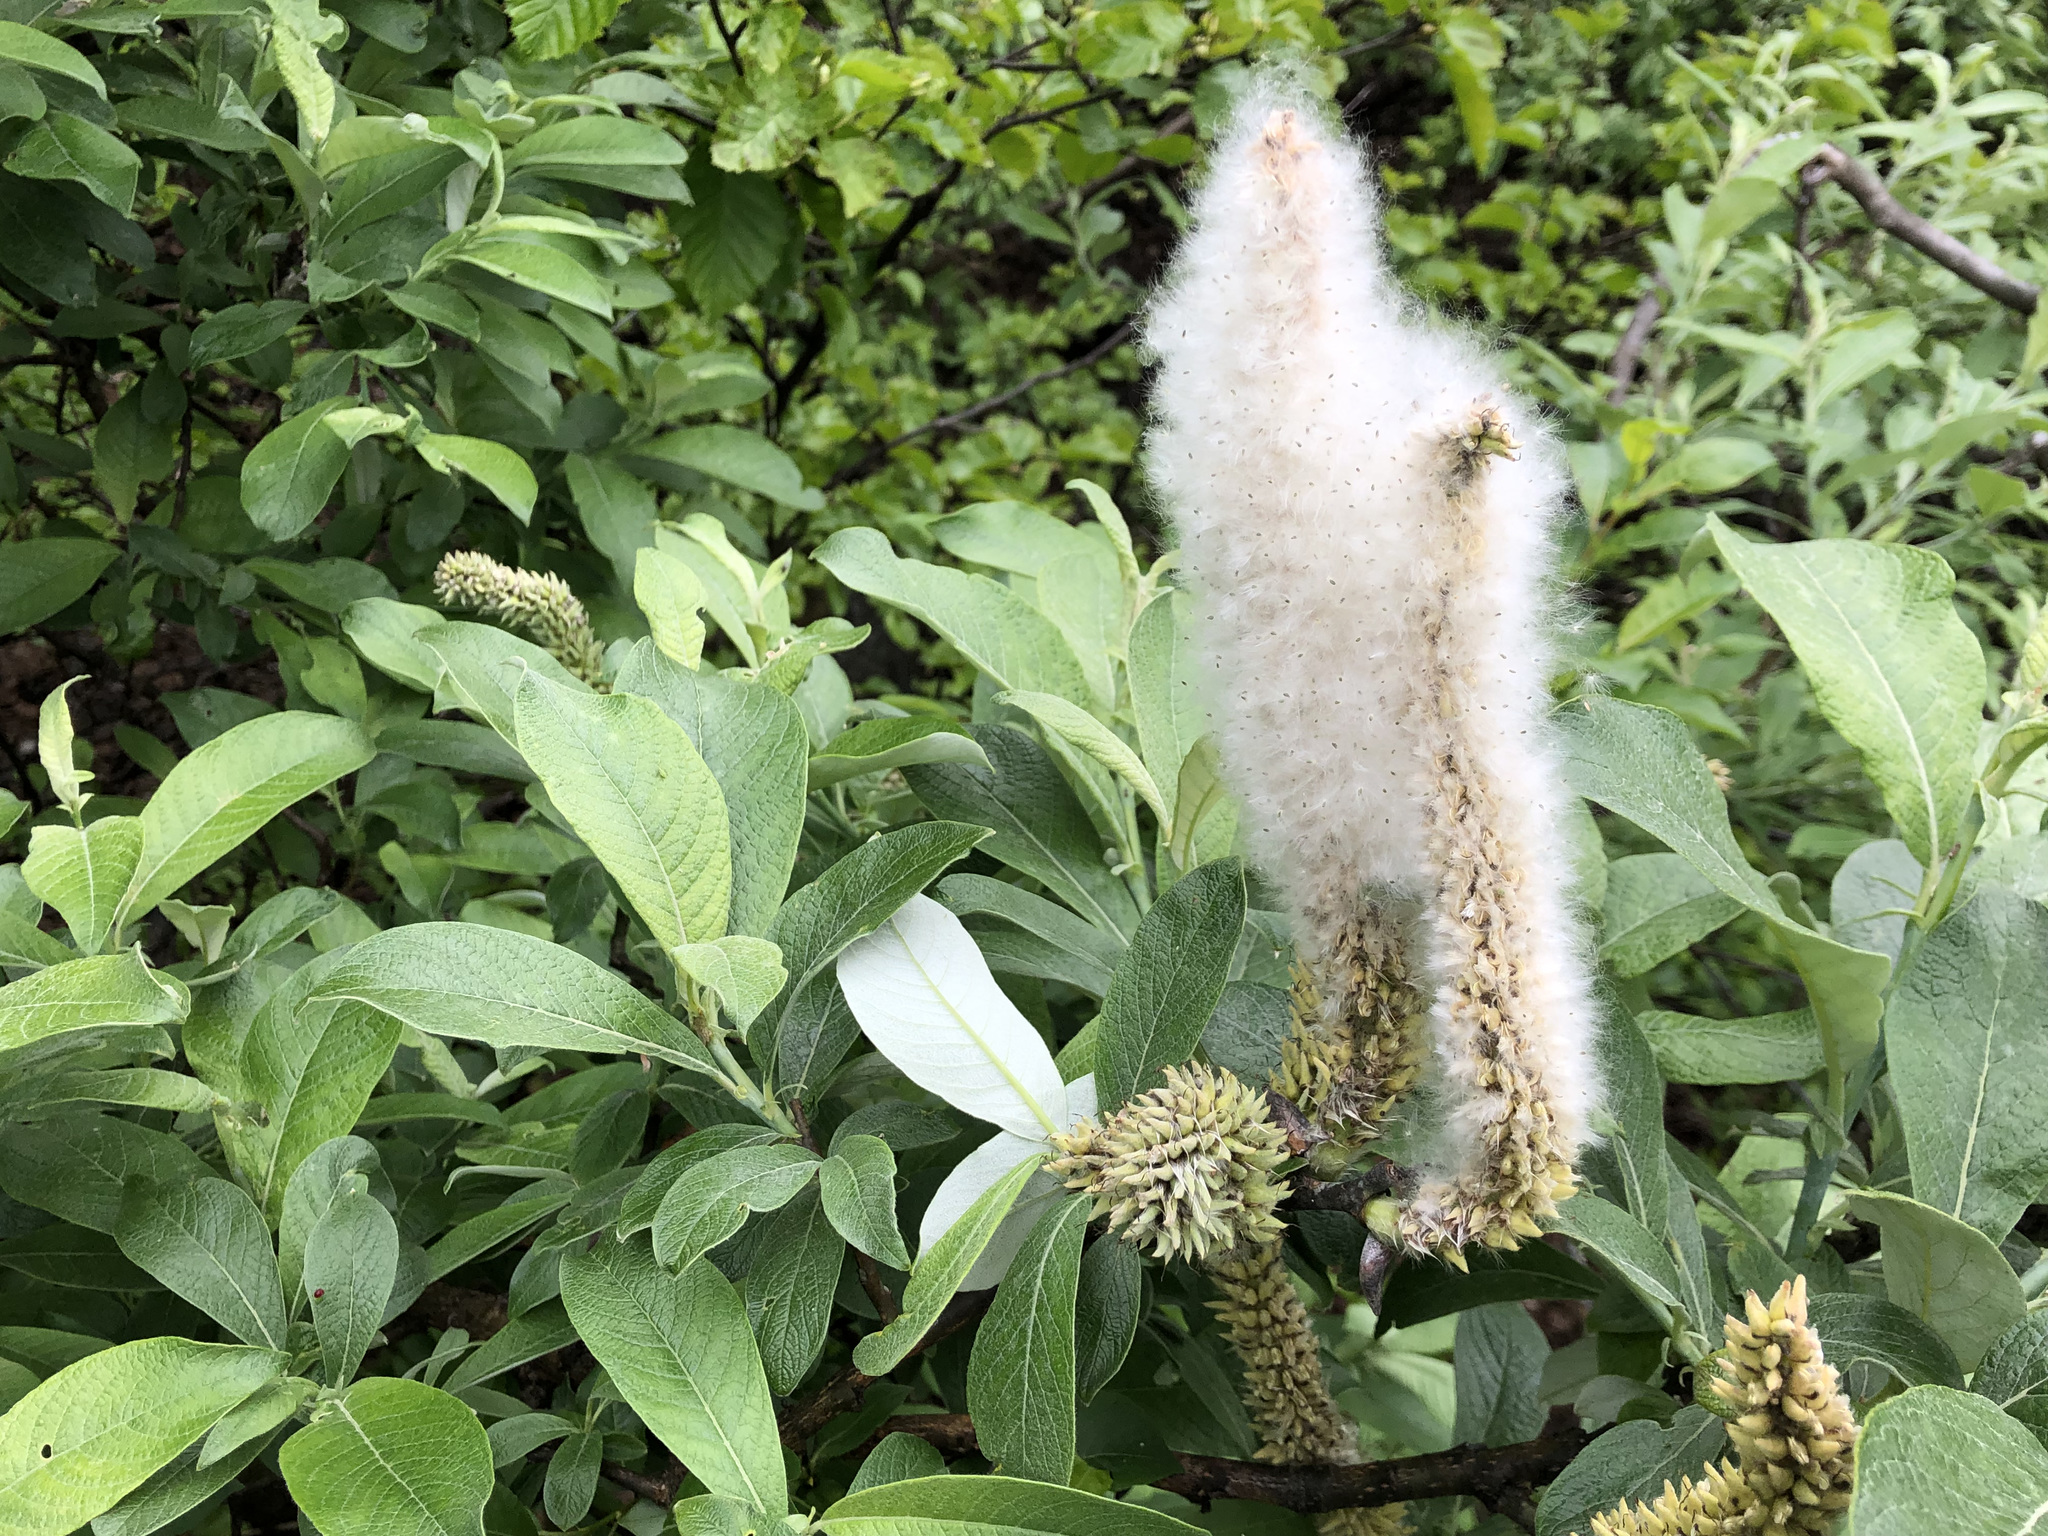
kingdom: Plantae
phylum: Tracheophyta
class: Magnoliopsida
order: Malpighiales
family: Salicaceae
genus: Salix
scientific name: Salix alaxensis
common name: Feltleaf willow
